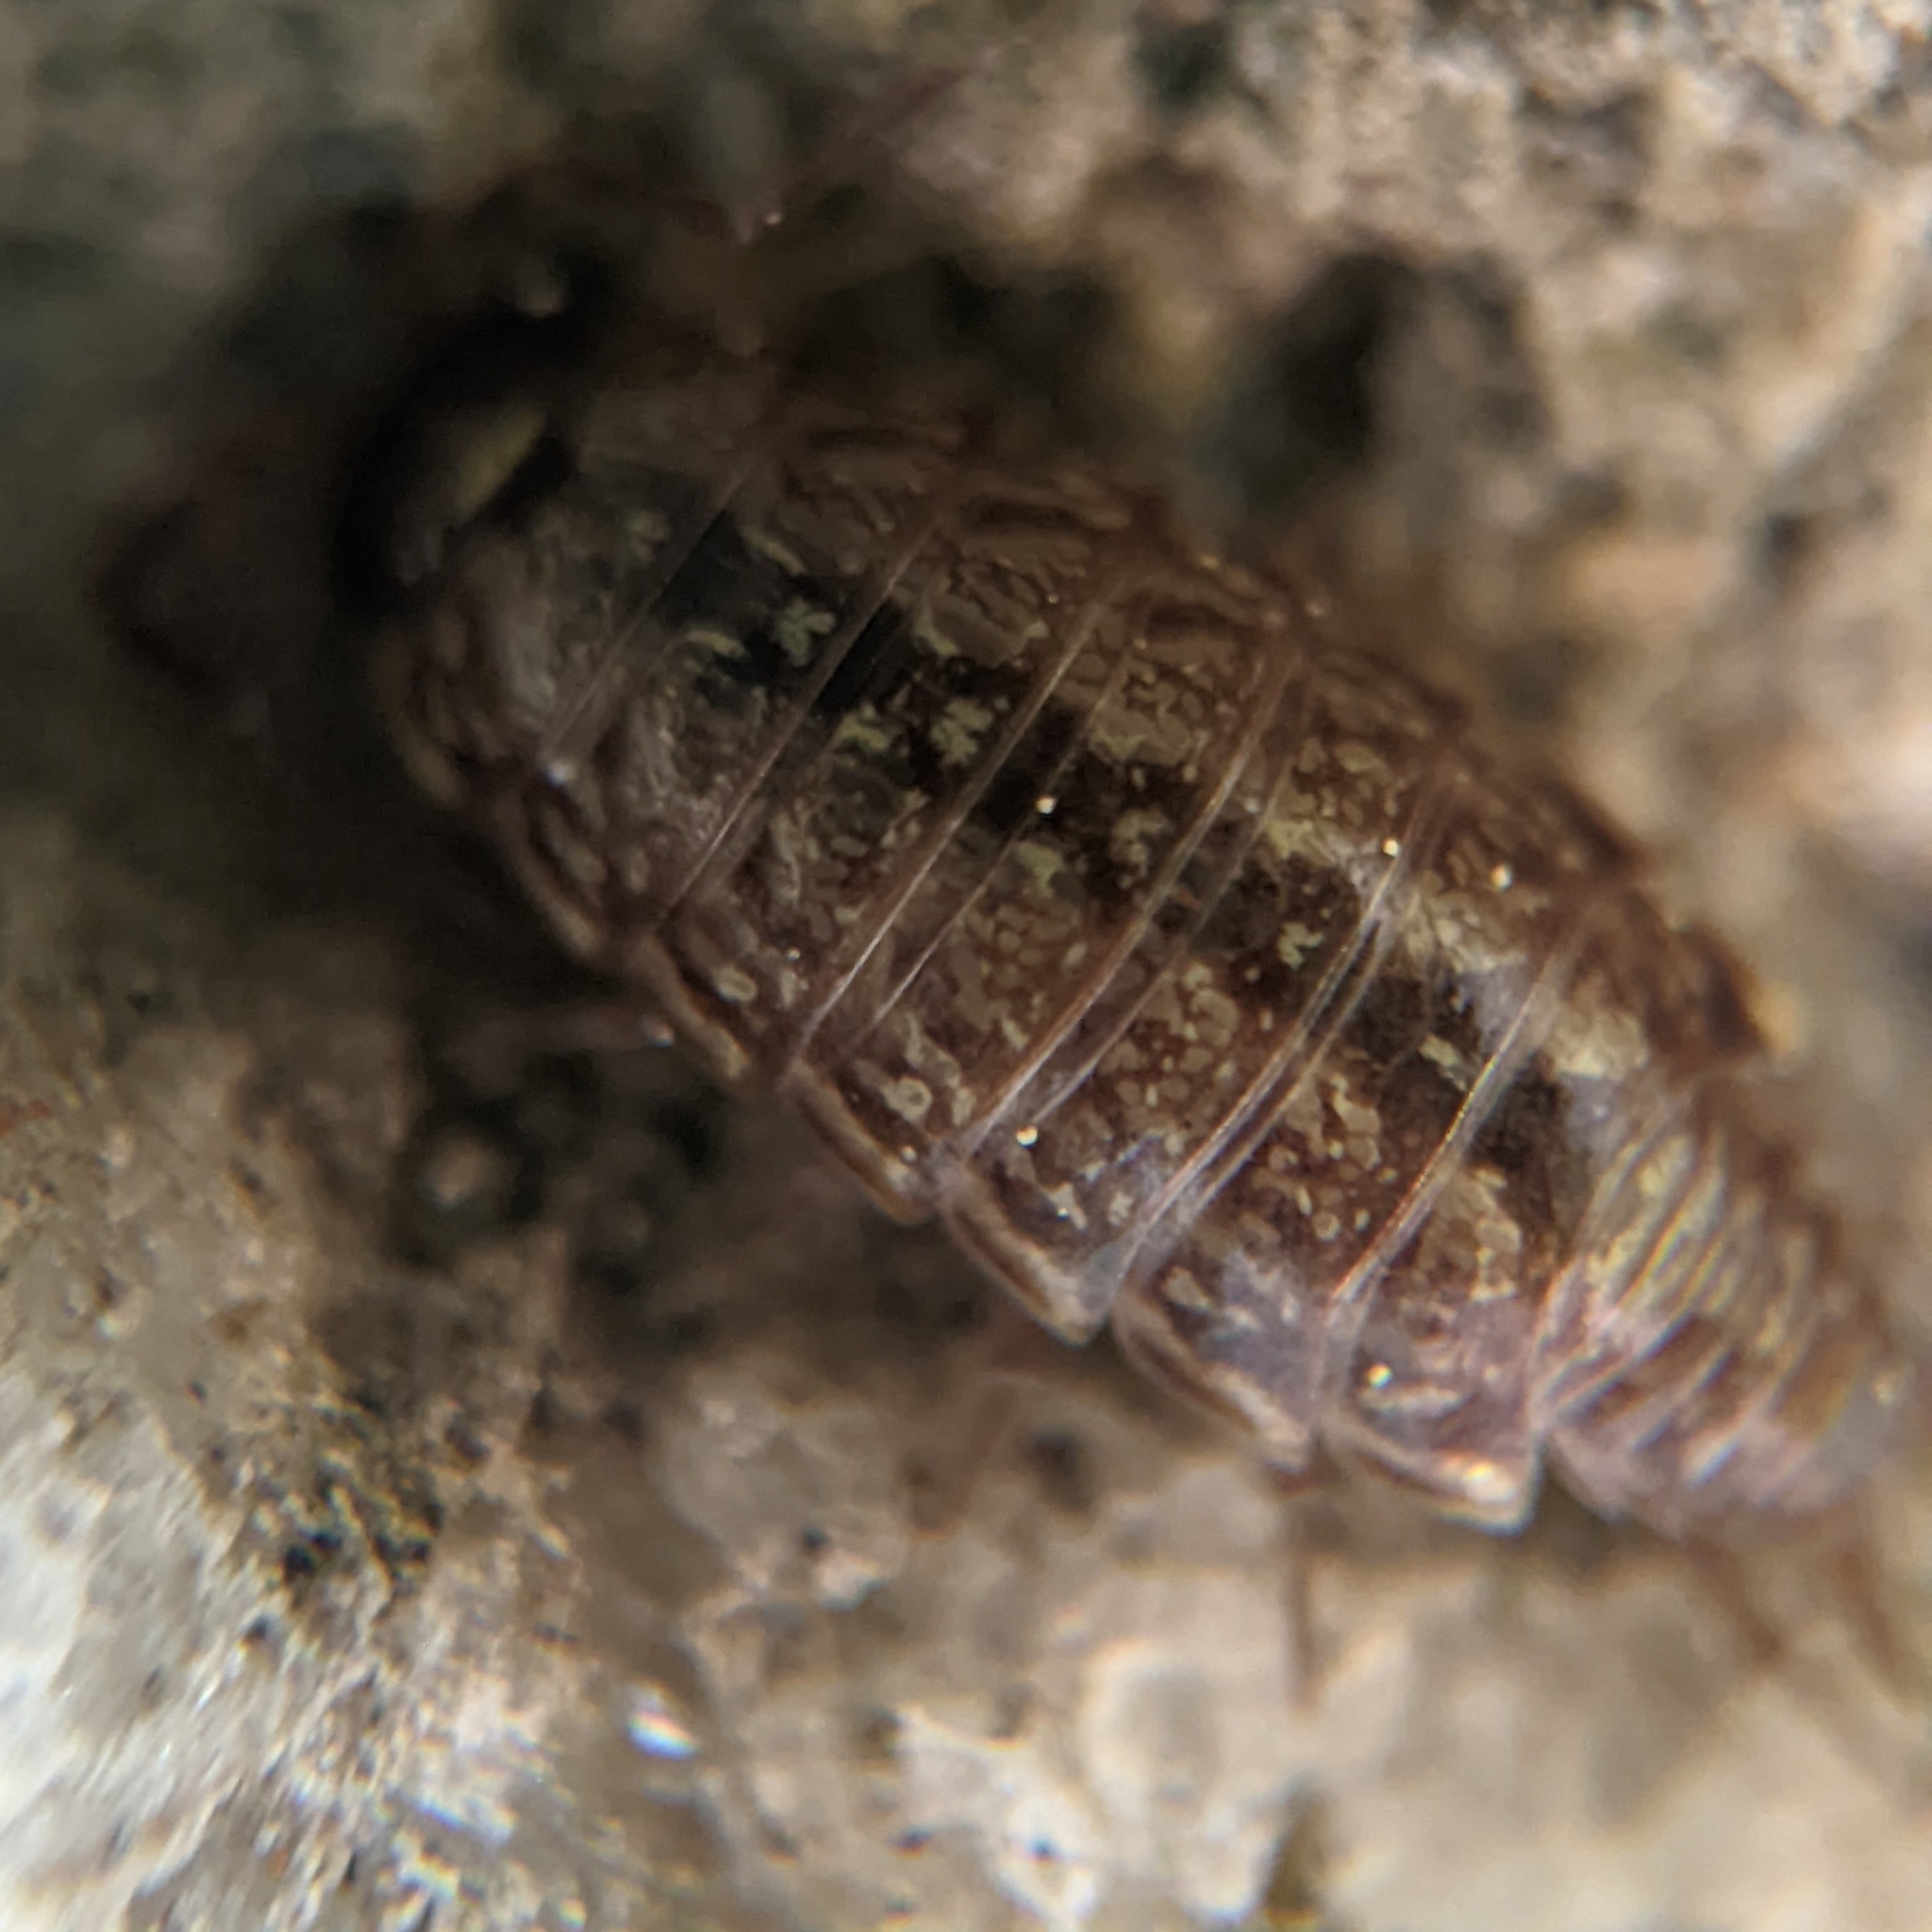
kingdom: Animalia
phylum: Arthropoda
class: Malacostraca
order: Isopoda
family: Philosciidae
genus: Philoscia
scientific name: Philoscia muscorum
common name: Common striped woodlouse
